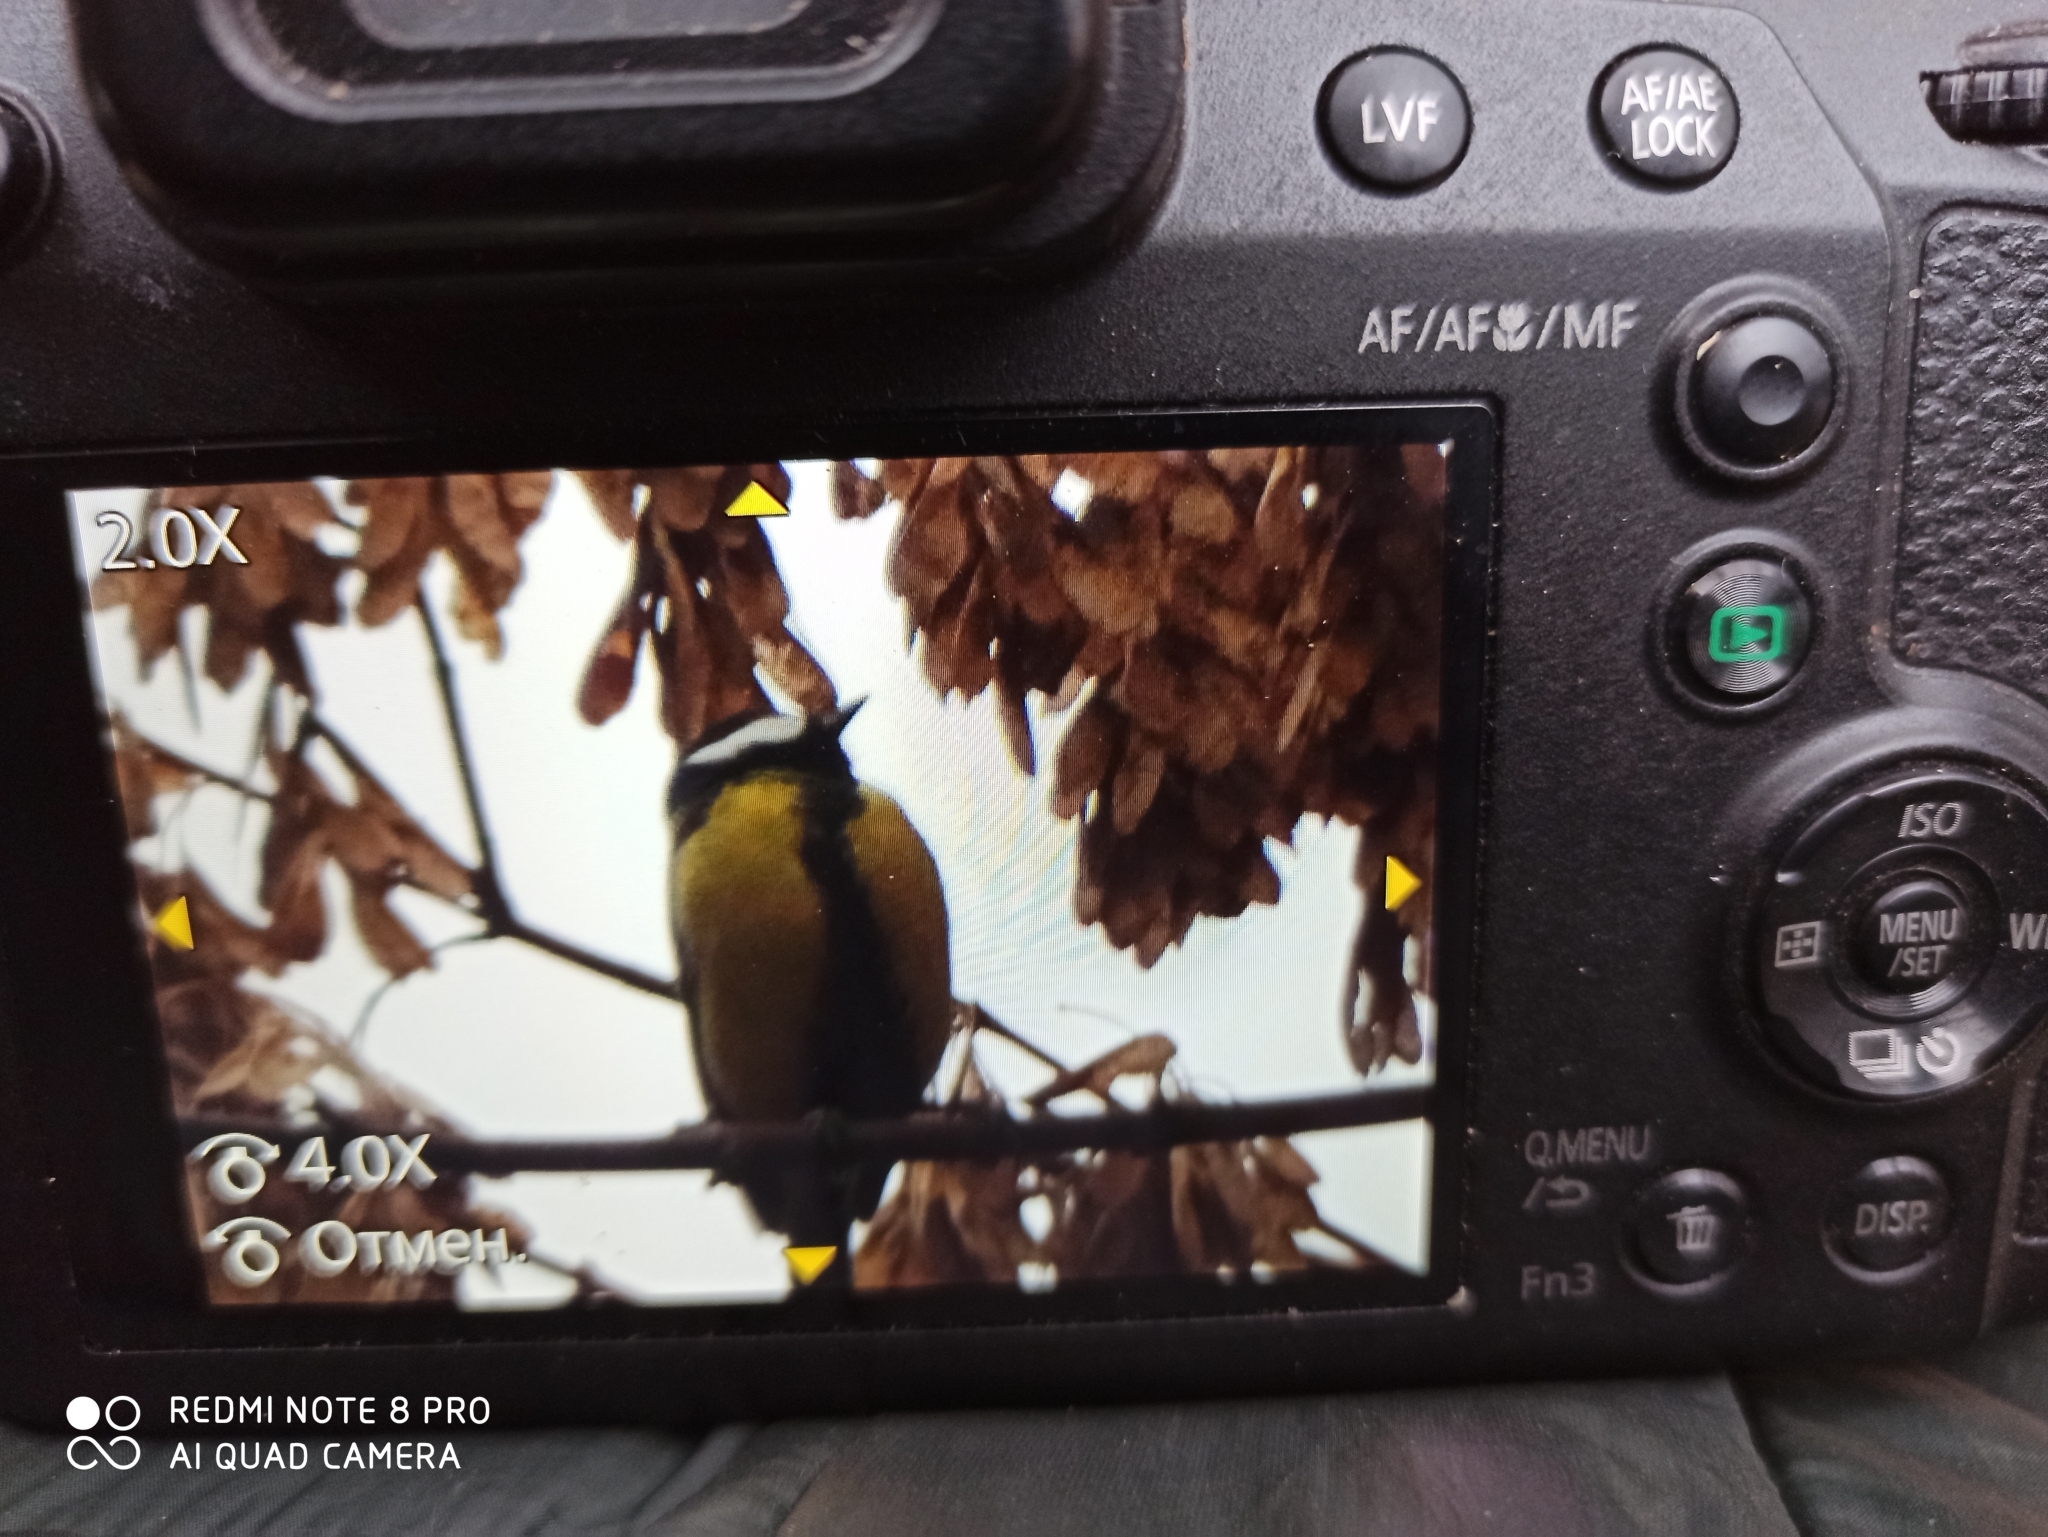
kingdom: Animalia
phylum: Chordata
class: Aves
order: Passeriformes
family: Paridae
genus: Parus
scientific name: Parus major
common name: Great tit
